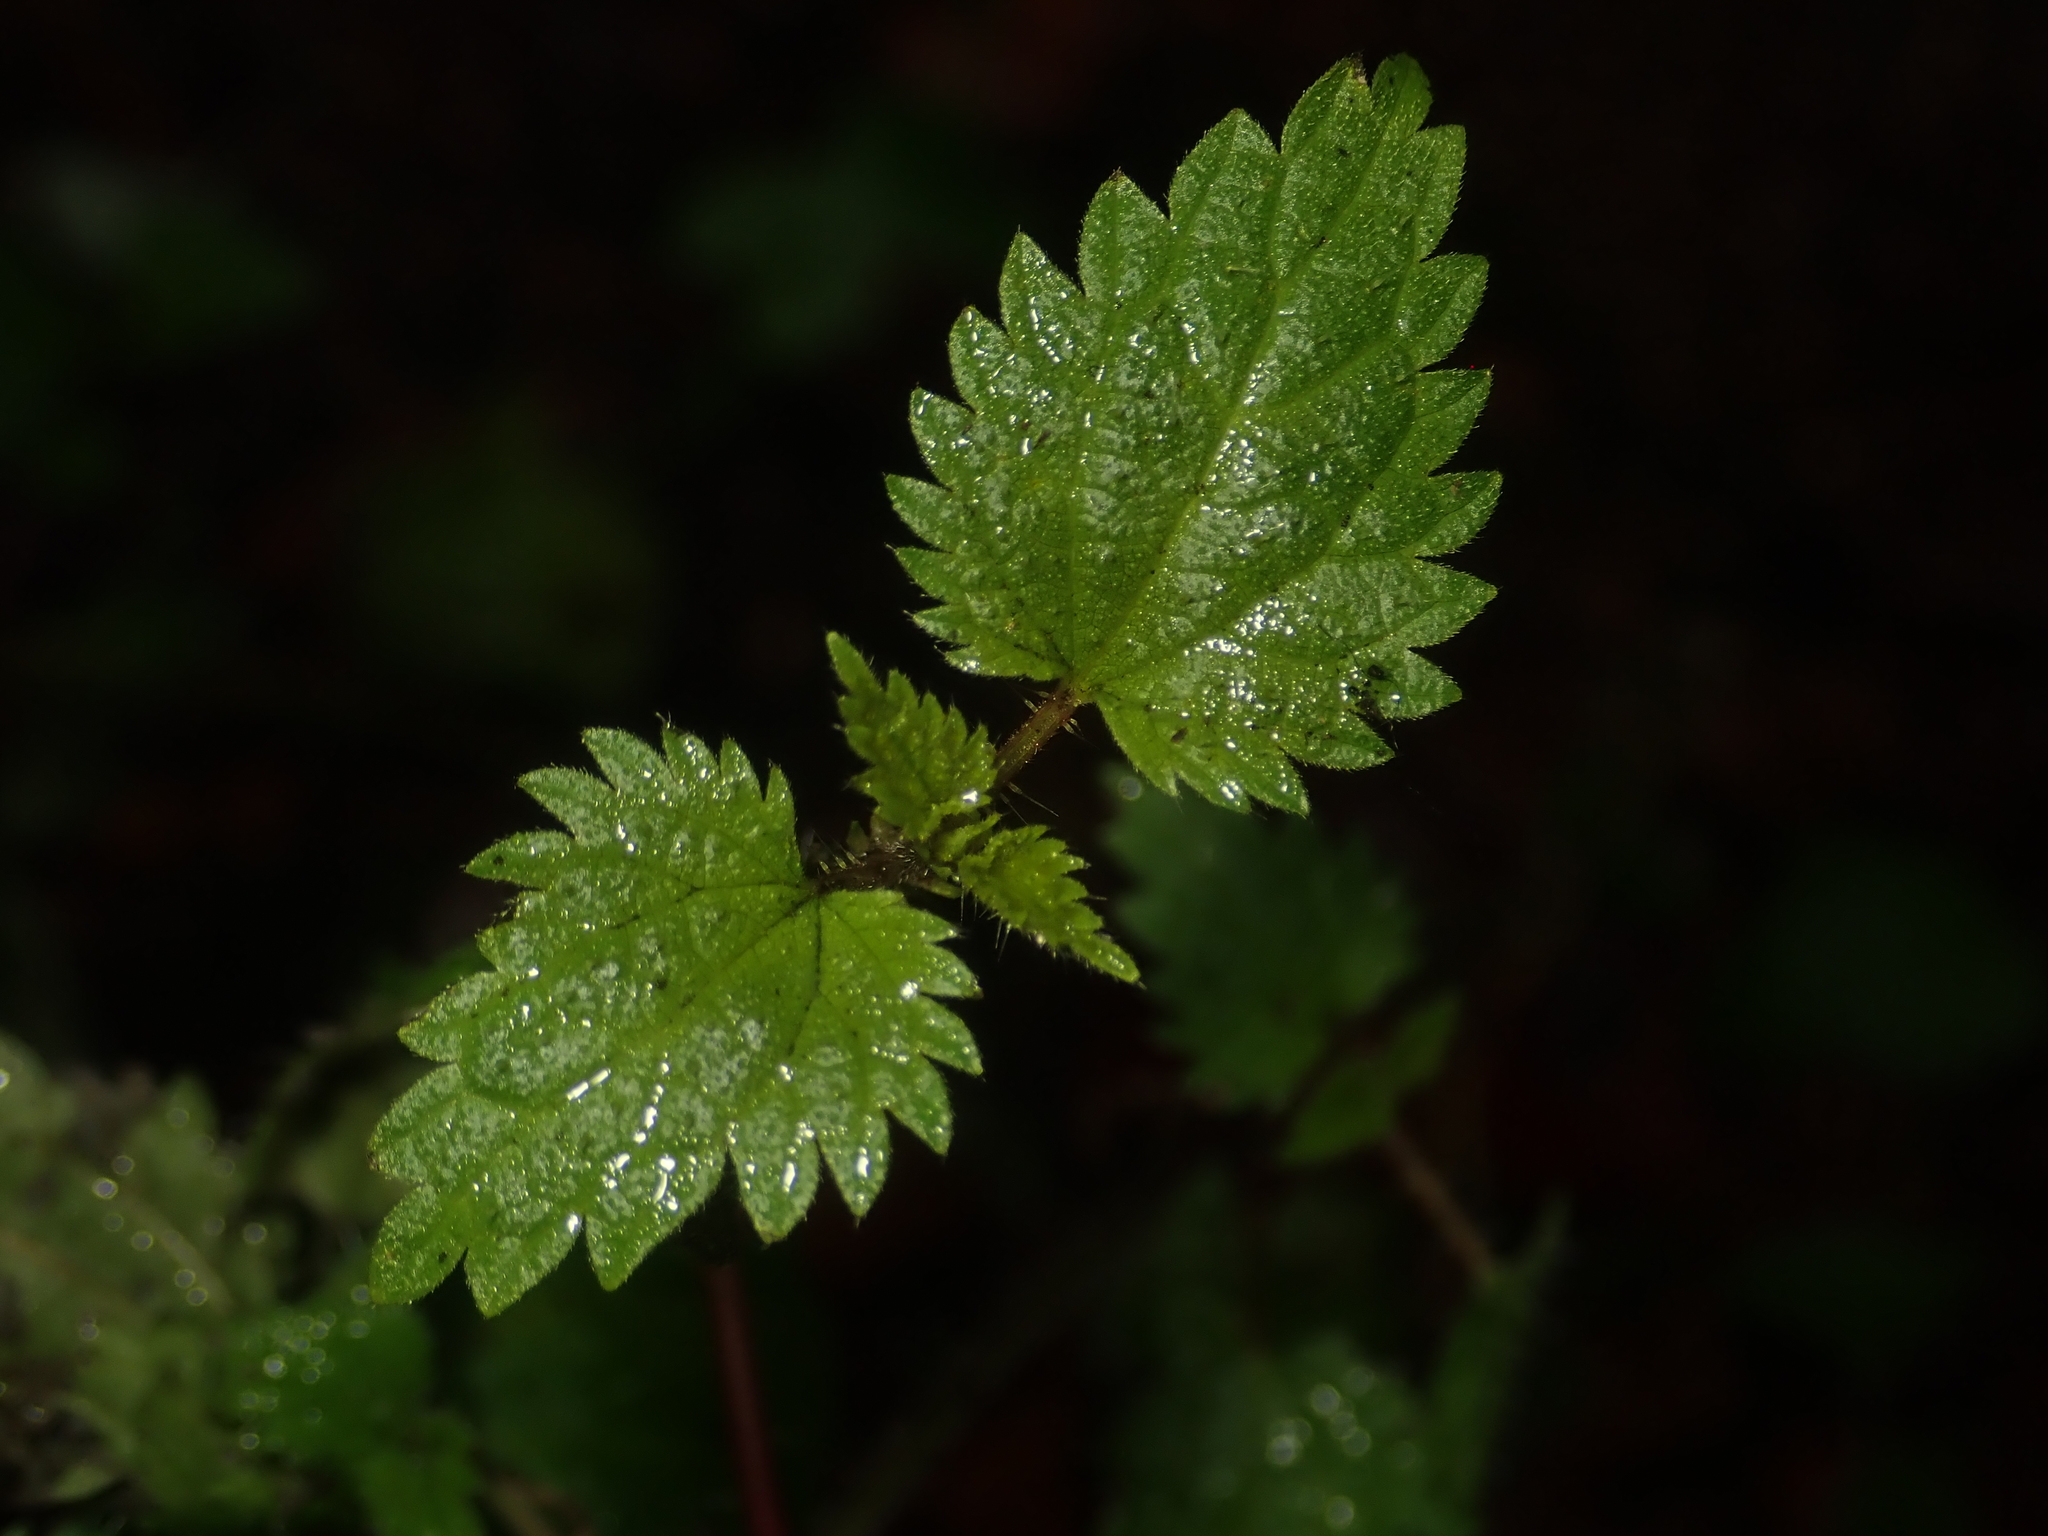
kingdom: Plantae
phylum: Tracheophyta
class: Magnoliopsida
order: Rosales
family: Urticaceae
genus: Urtica
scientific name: Urtica dioica
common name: Common nettle
